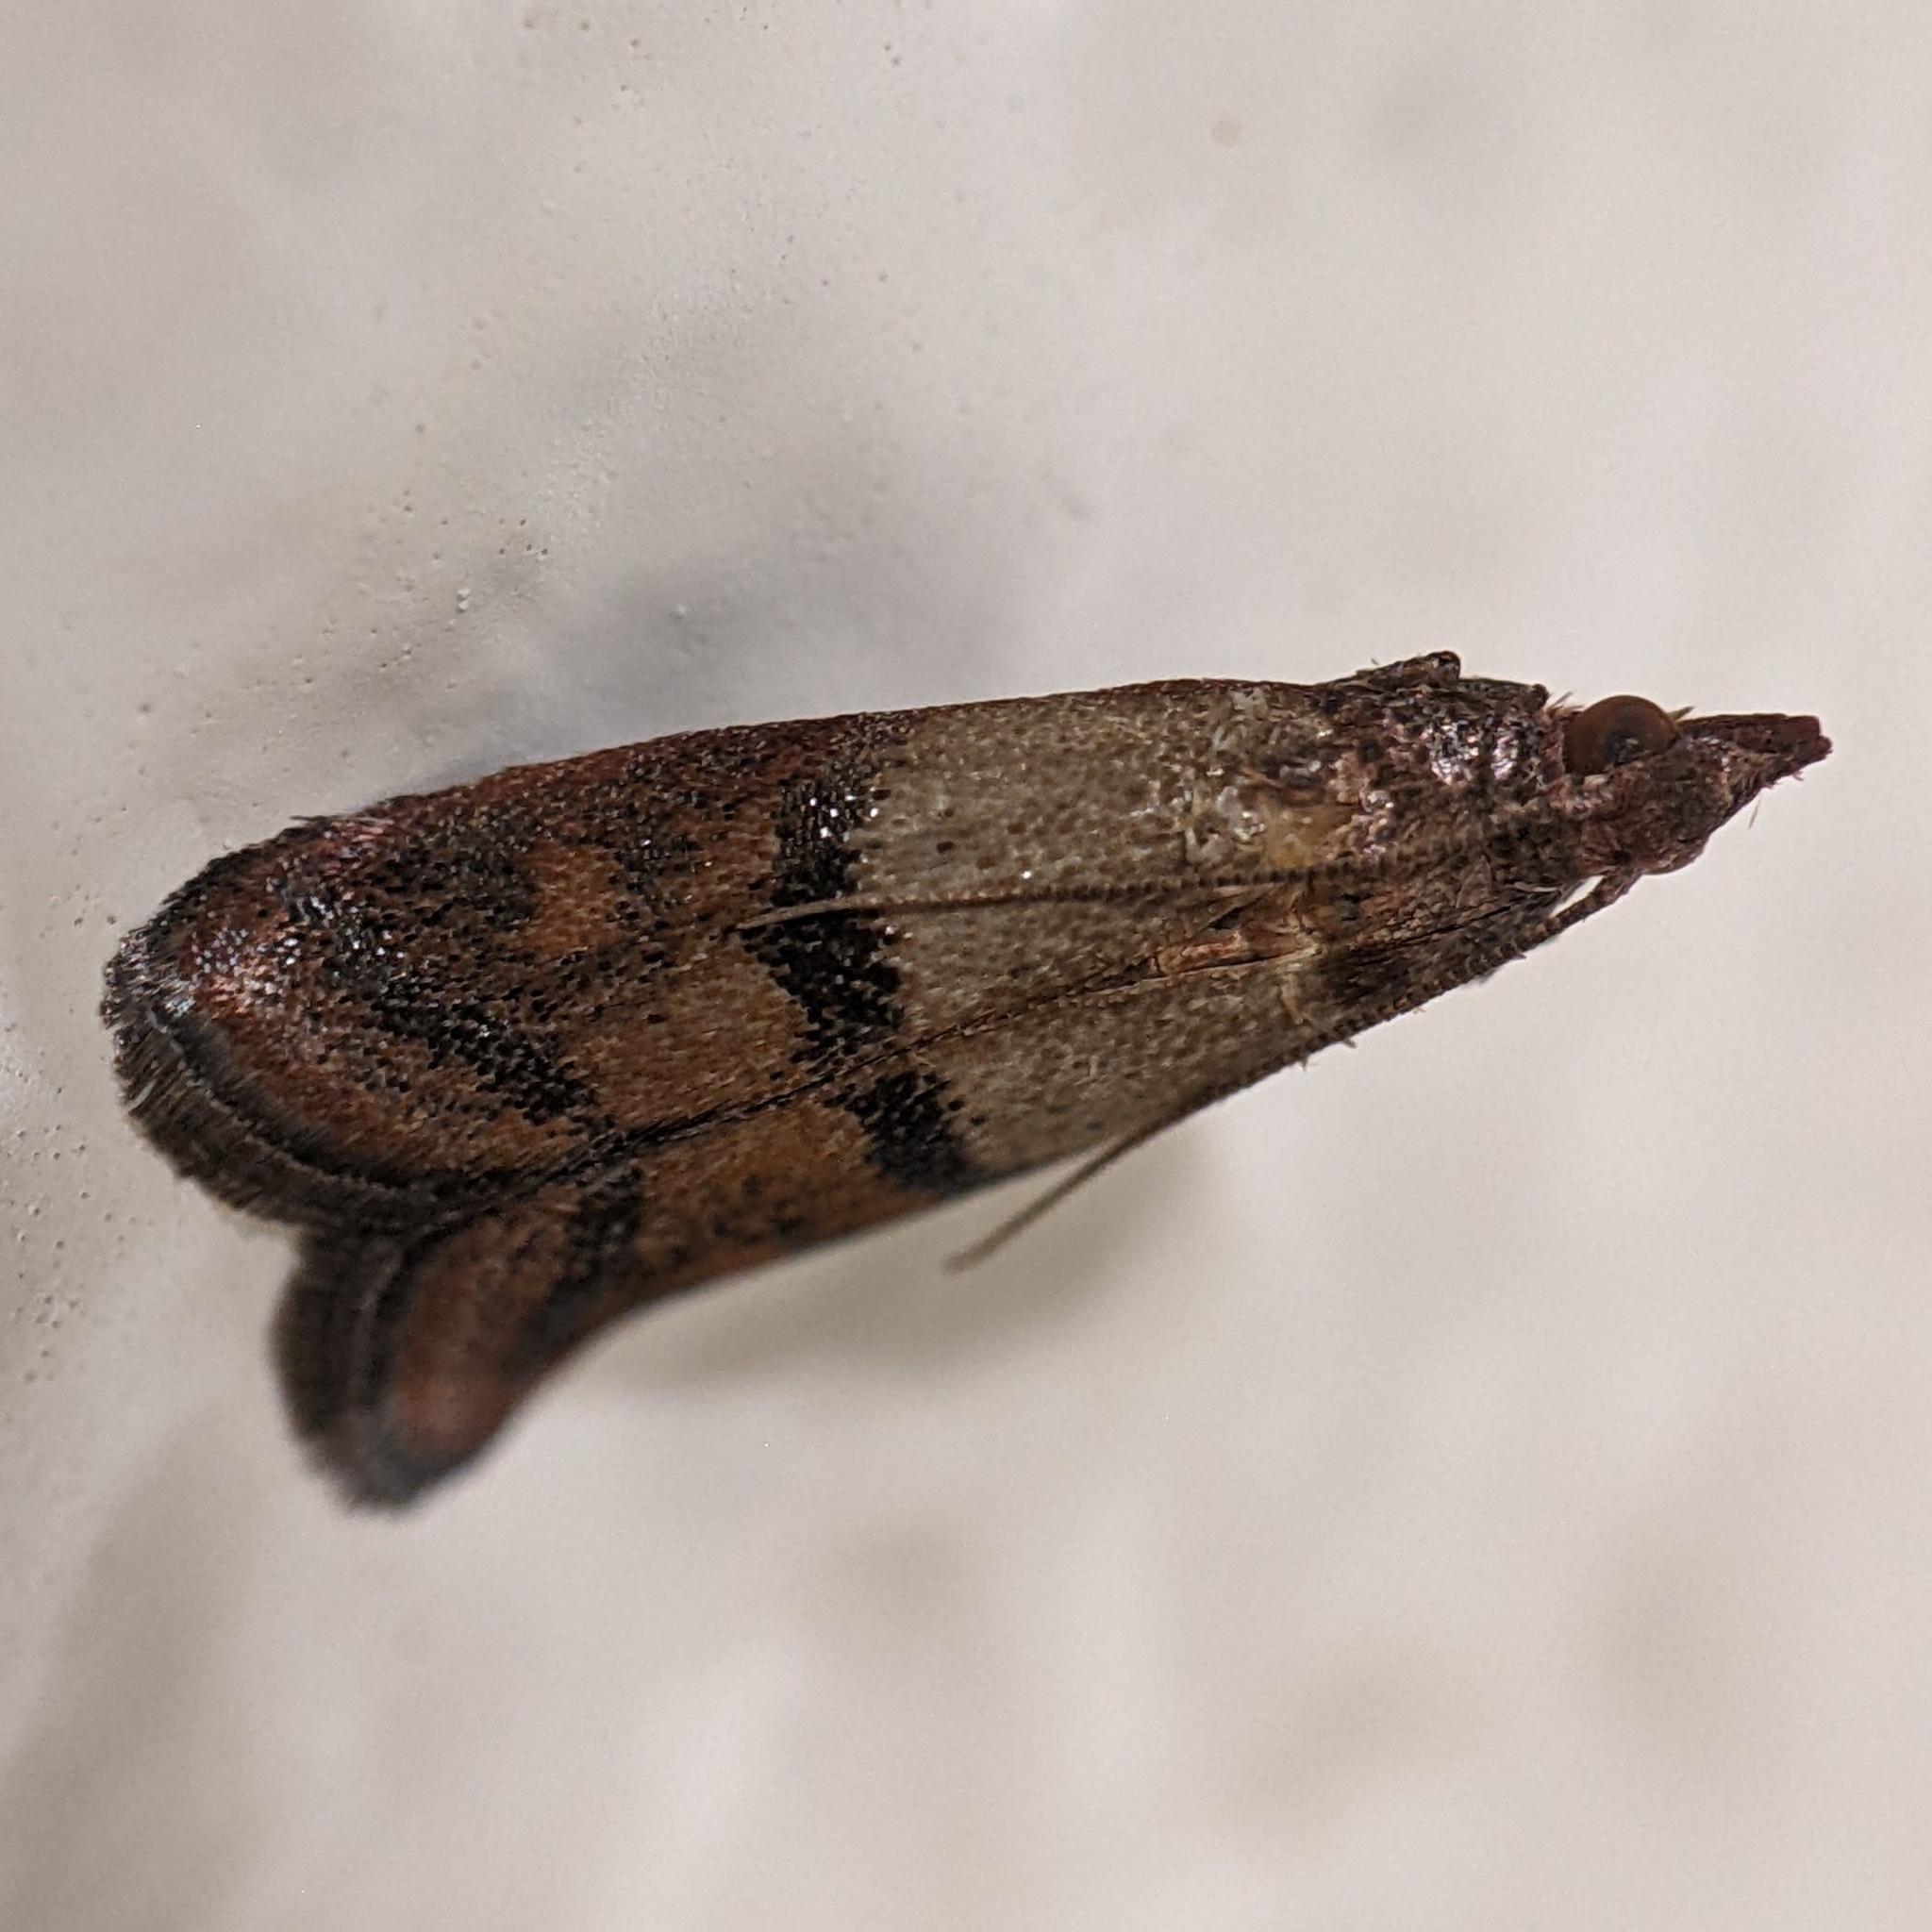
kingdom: Animalia
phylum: Arthropoda
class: Insecta
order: Lepidoptera
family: Pyralidae
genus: Plodia
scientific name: Plodia interpunctella
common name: Indian meal moth
